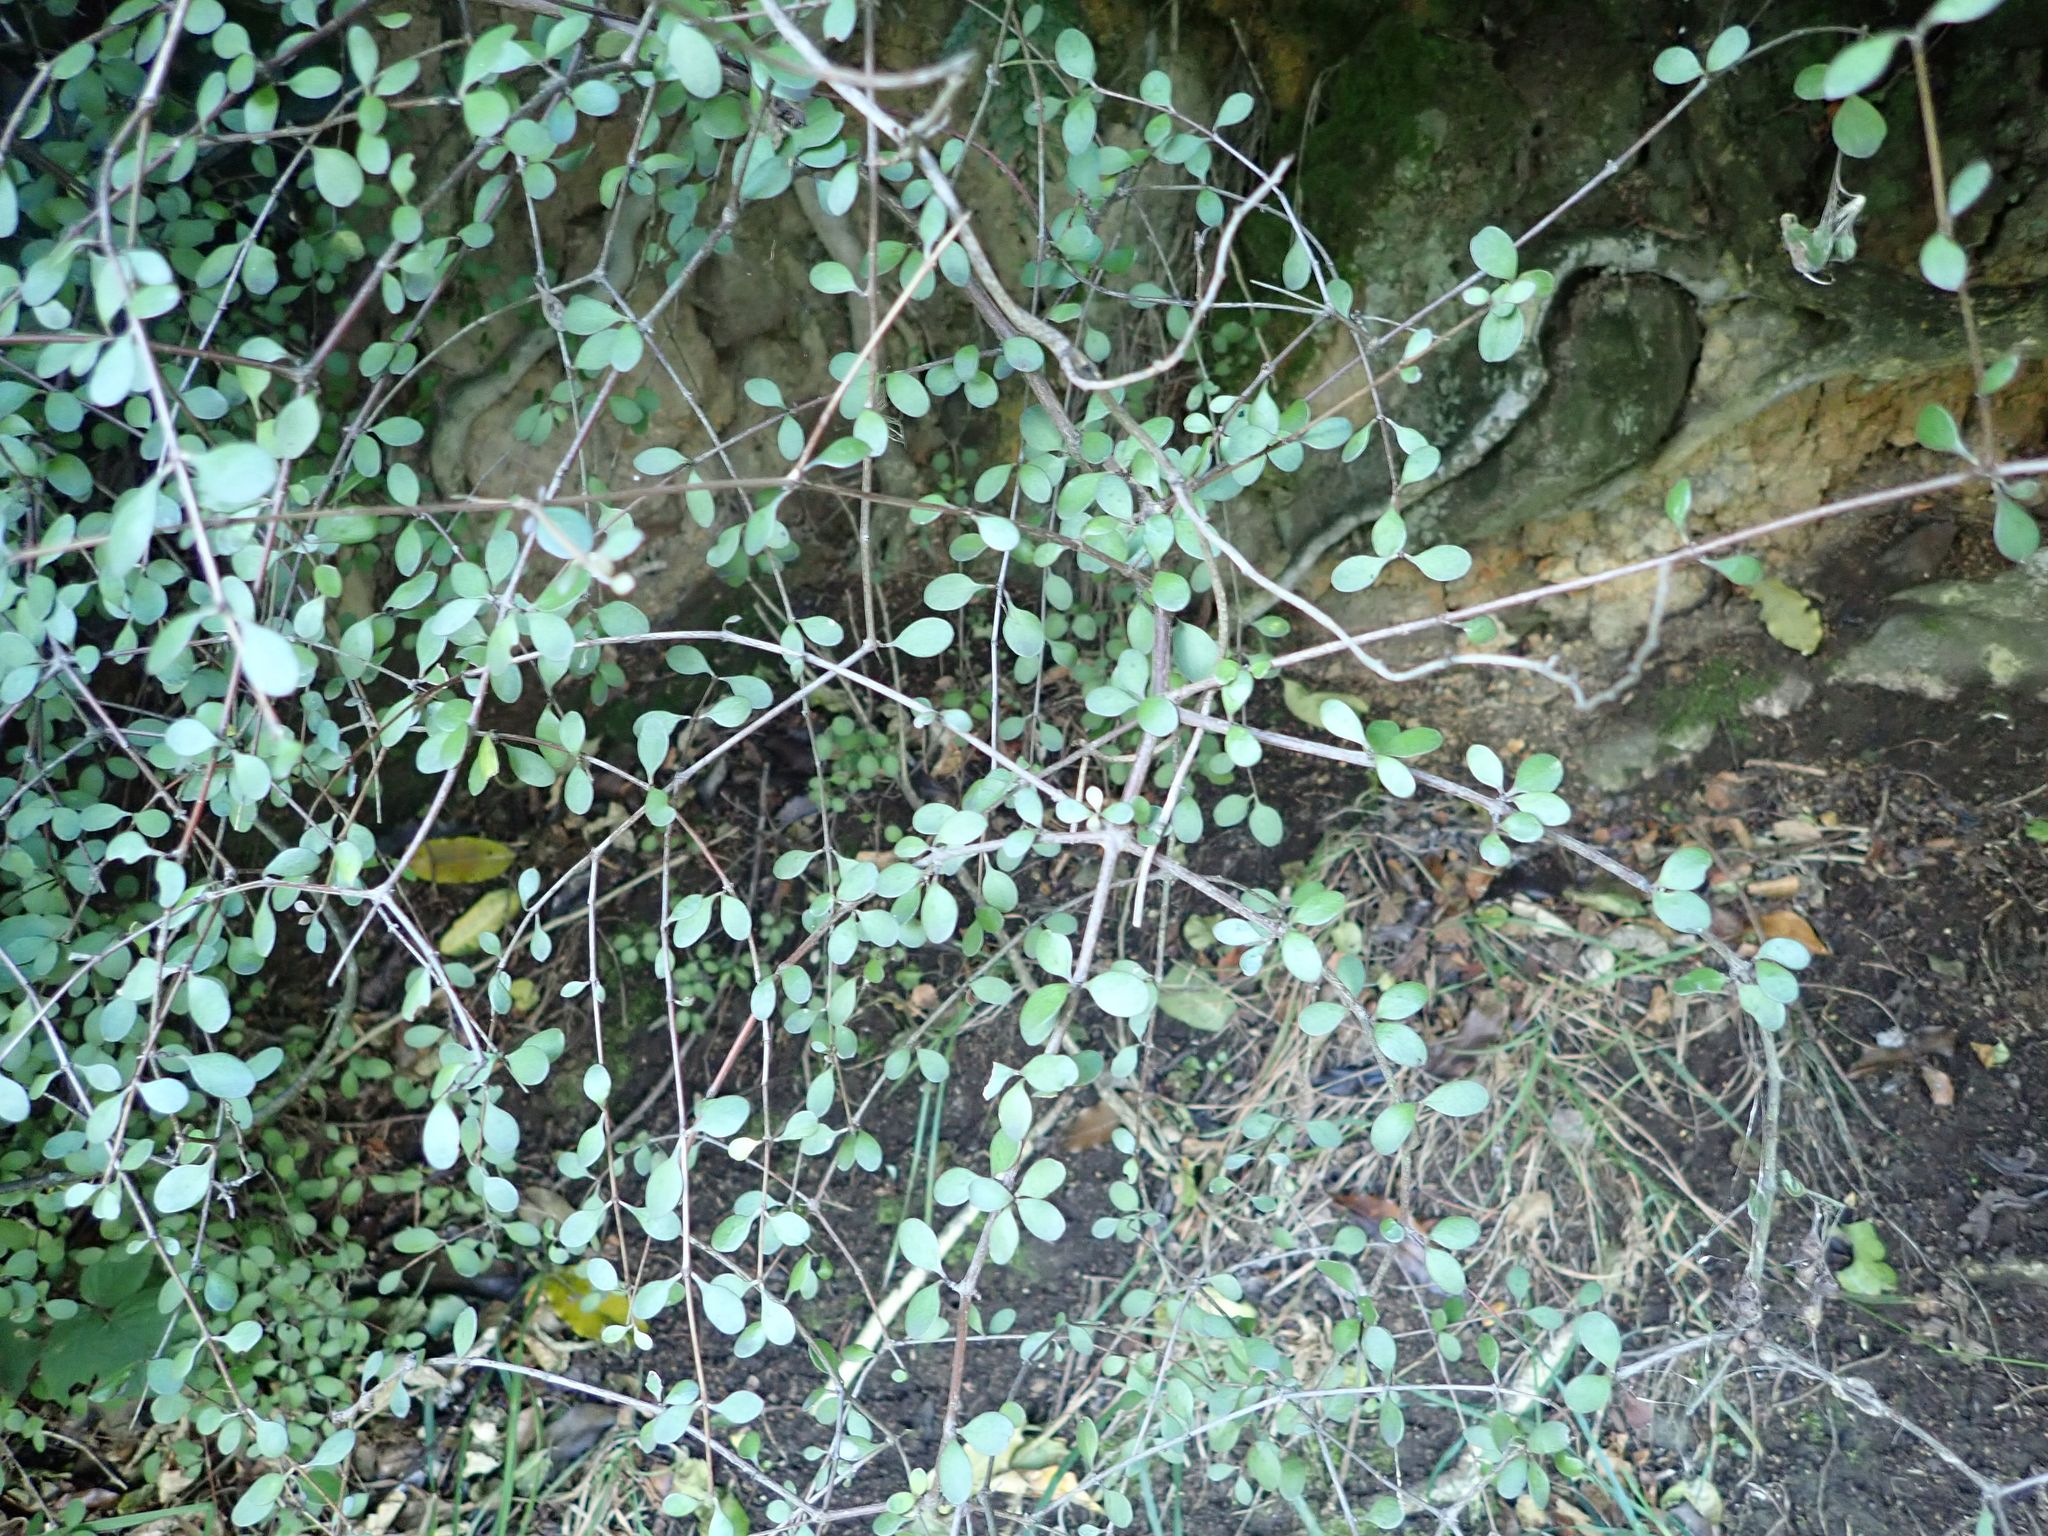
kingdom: Plantae
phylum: Tracheophyta
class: Magnoliopsida
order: Gentianales
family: Rubiaceae
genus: Coprosma
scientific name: Coprosma crassifolia
